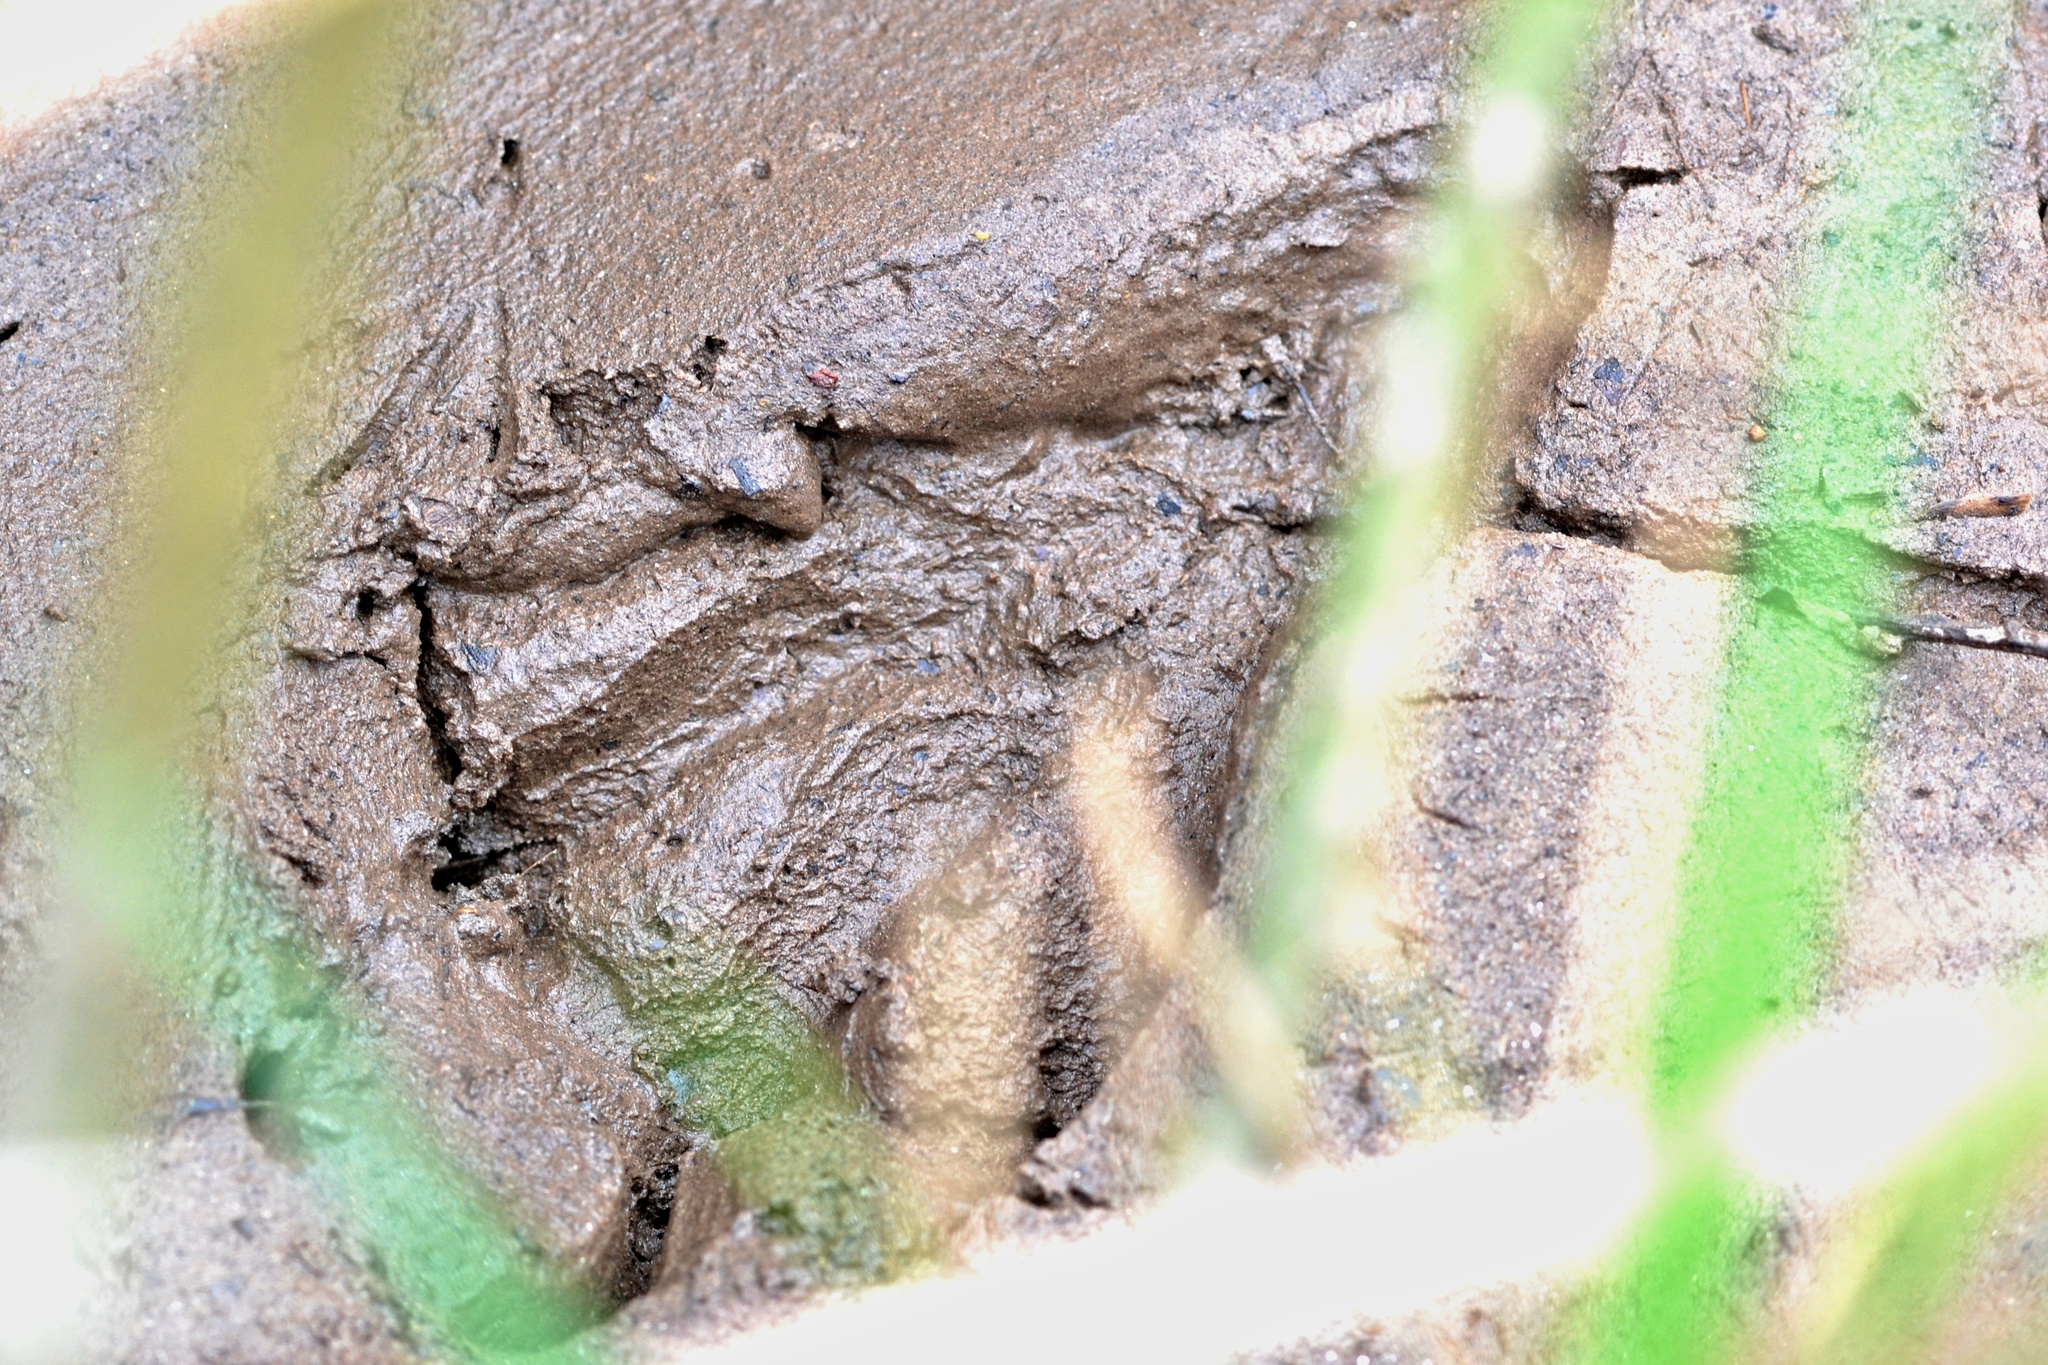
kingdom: Animalia
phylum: Chordata
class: Mammalia
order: Rodentia
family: Castoridae
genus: Castor
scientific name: Castor fiber
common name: Eurasian beaver
